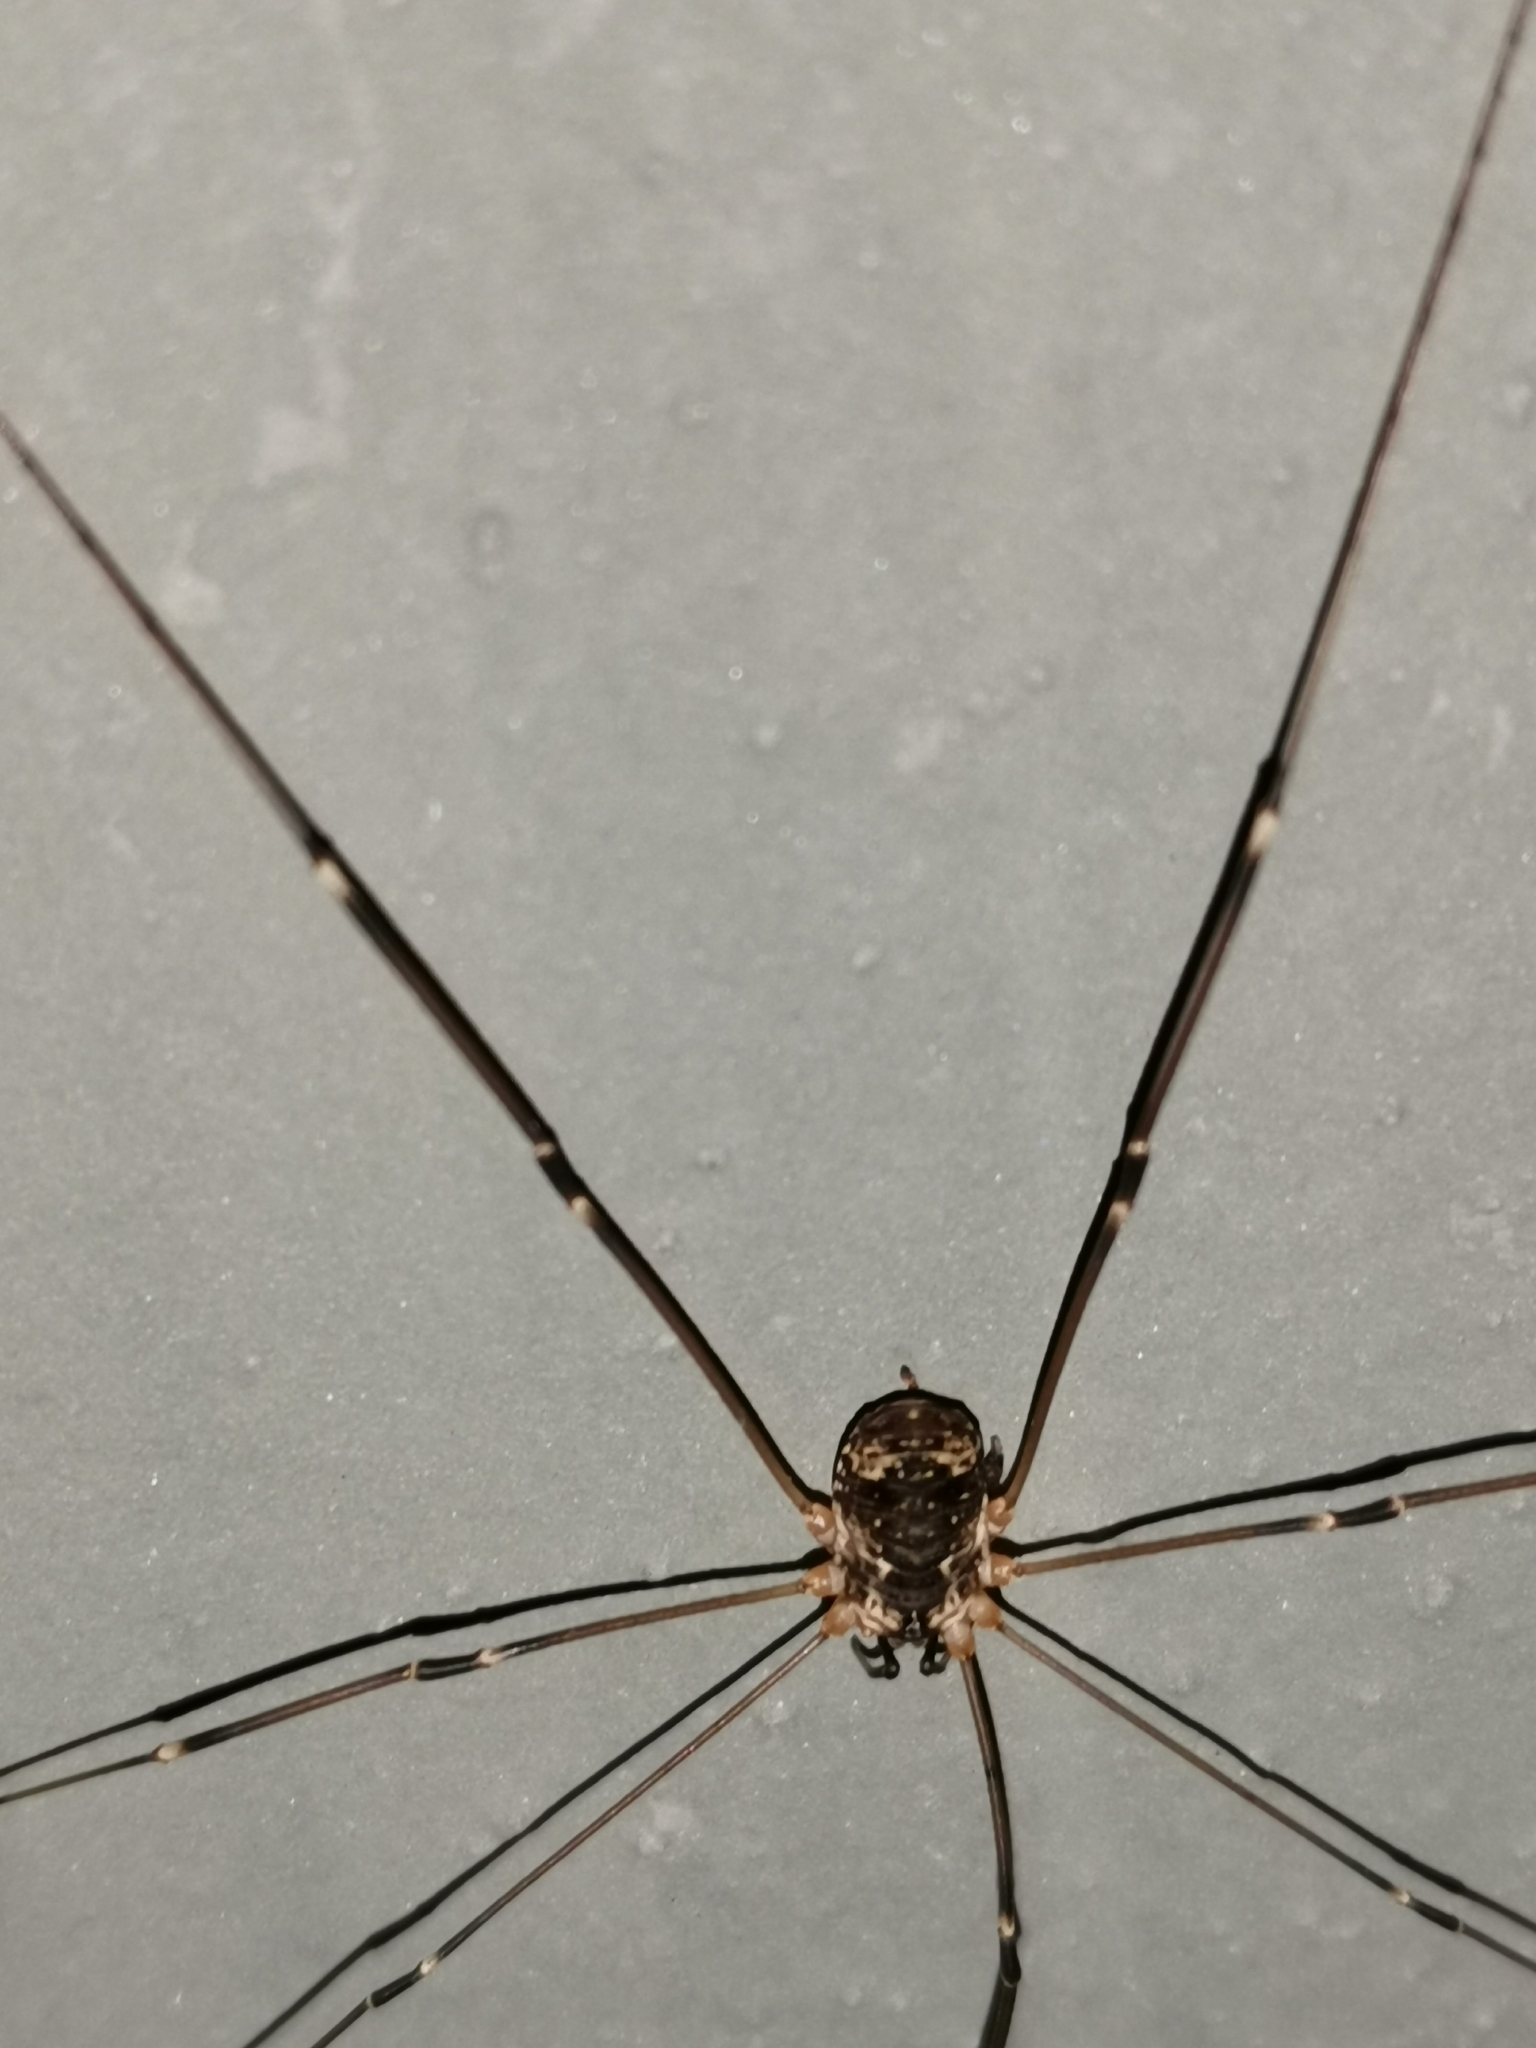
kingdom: Animalia
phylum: Arthropoda
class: Arachnida
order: Opiliones
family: Sclerosomatidae
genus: Leiobunum
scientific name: Leiobunum gracile
